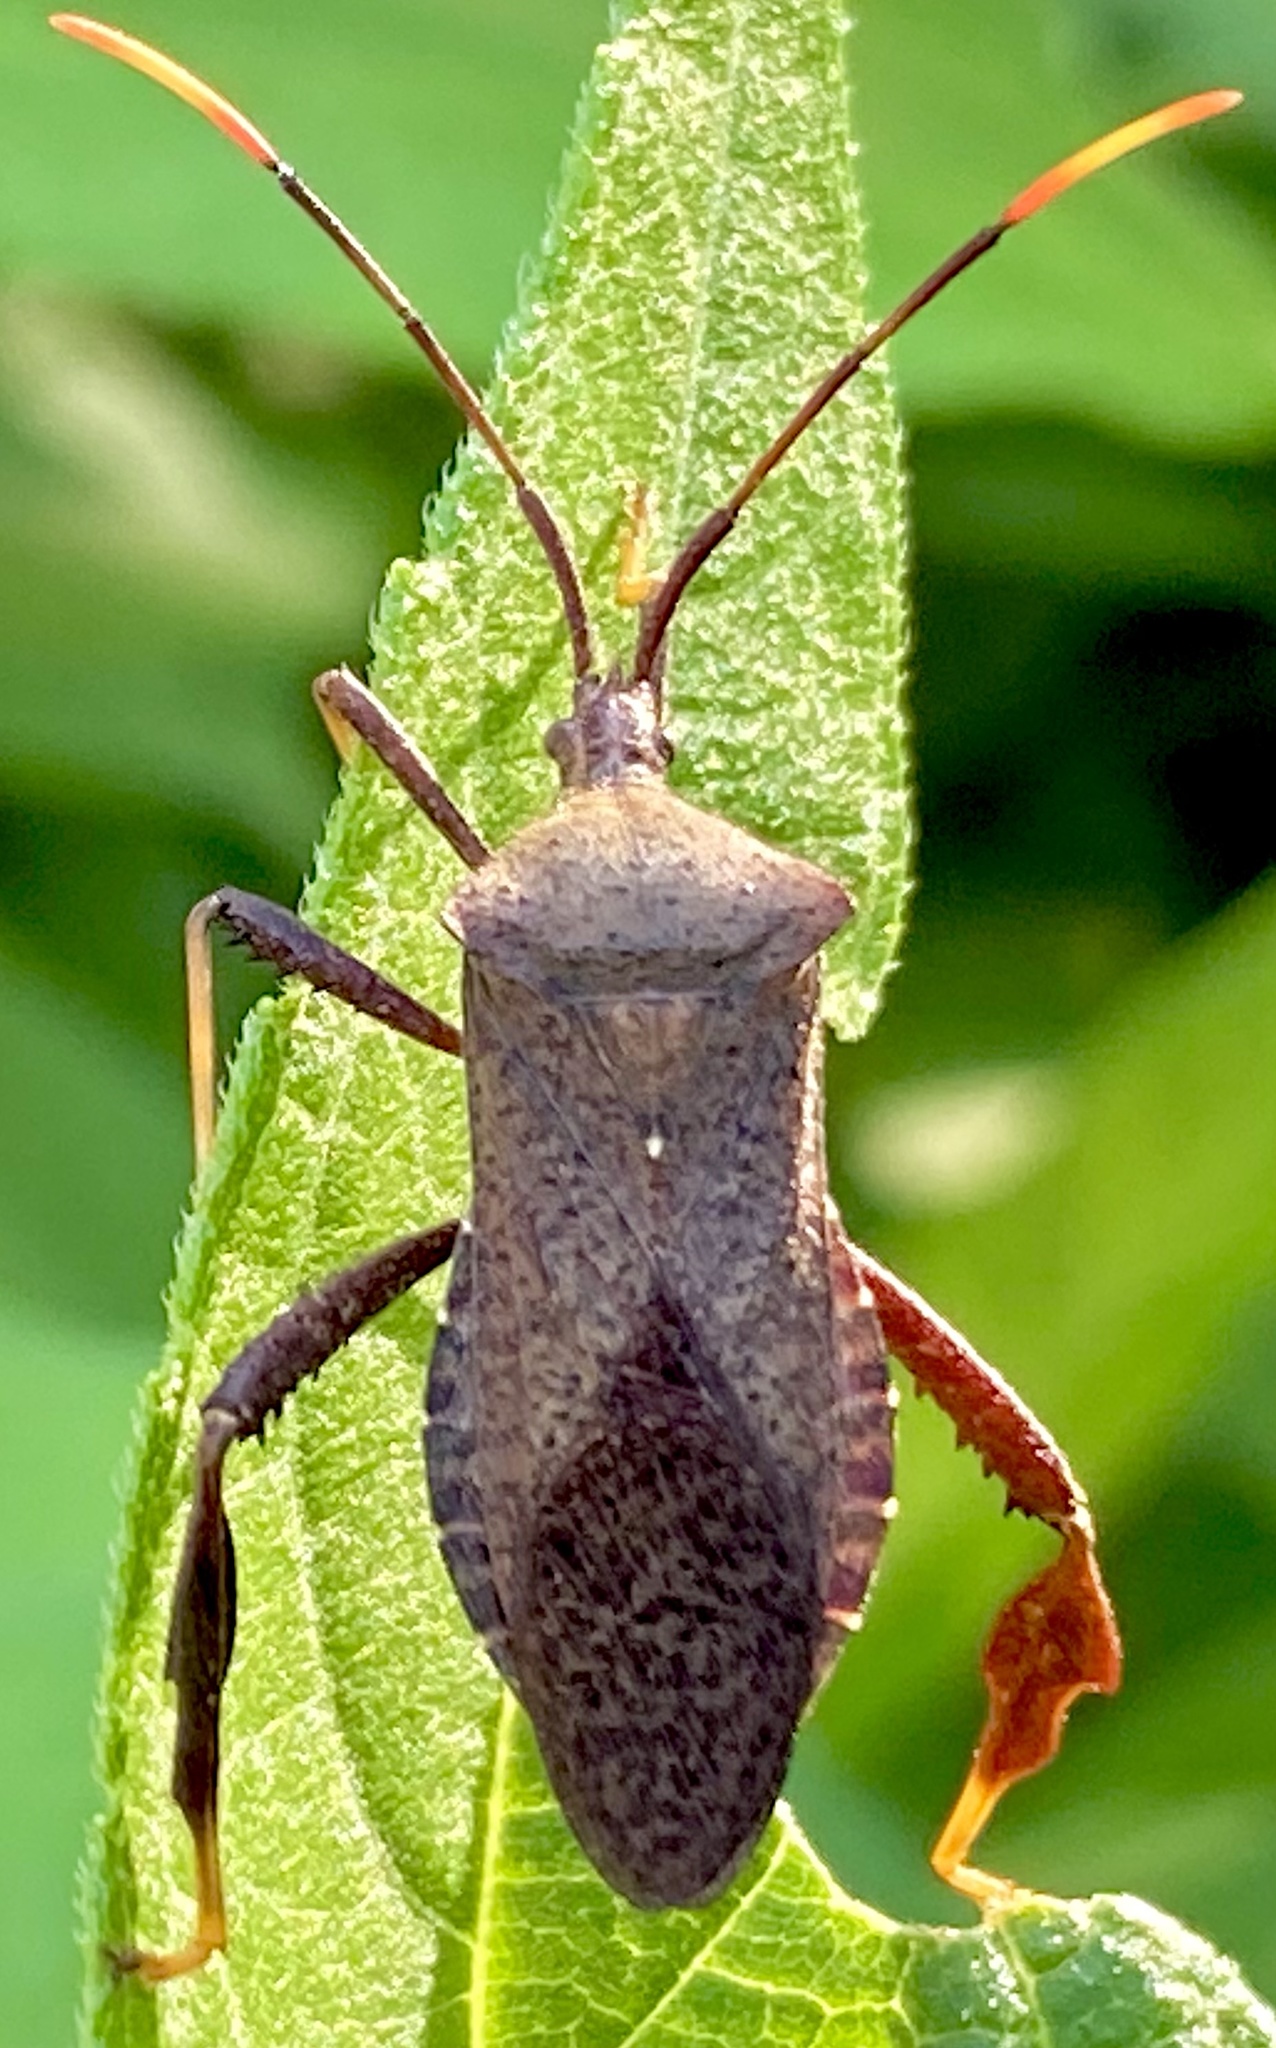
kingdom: Animalia
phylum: Arthropoda
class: Insecta
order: Hemiptera
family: Coreidae
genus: Acanthocephala
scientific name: Acanthocephala terminalis
